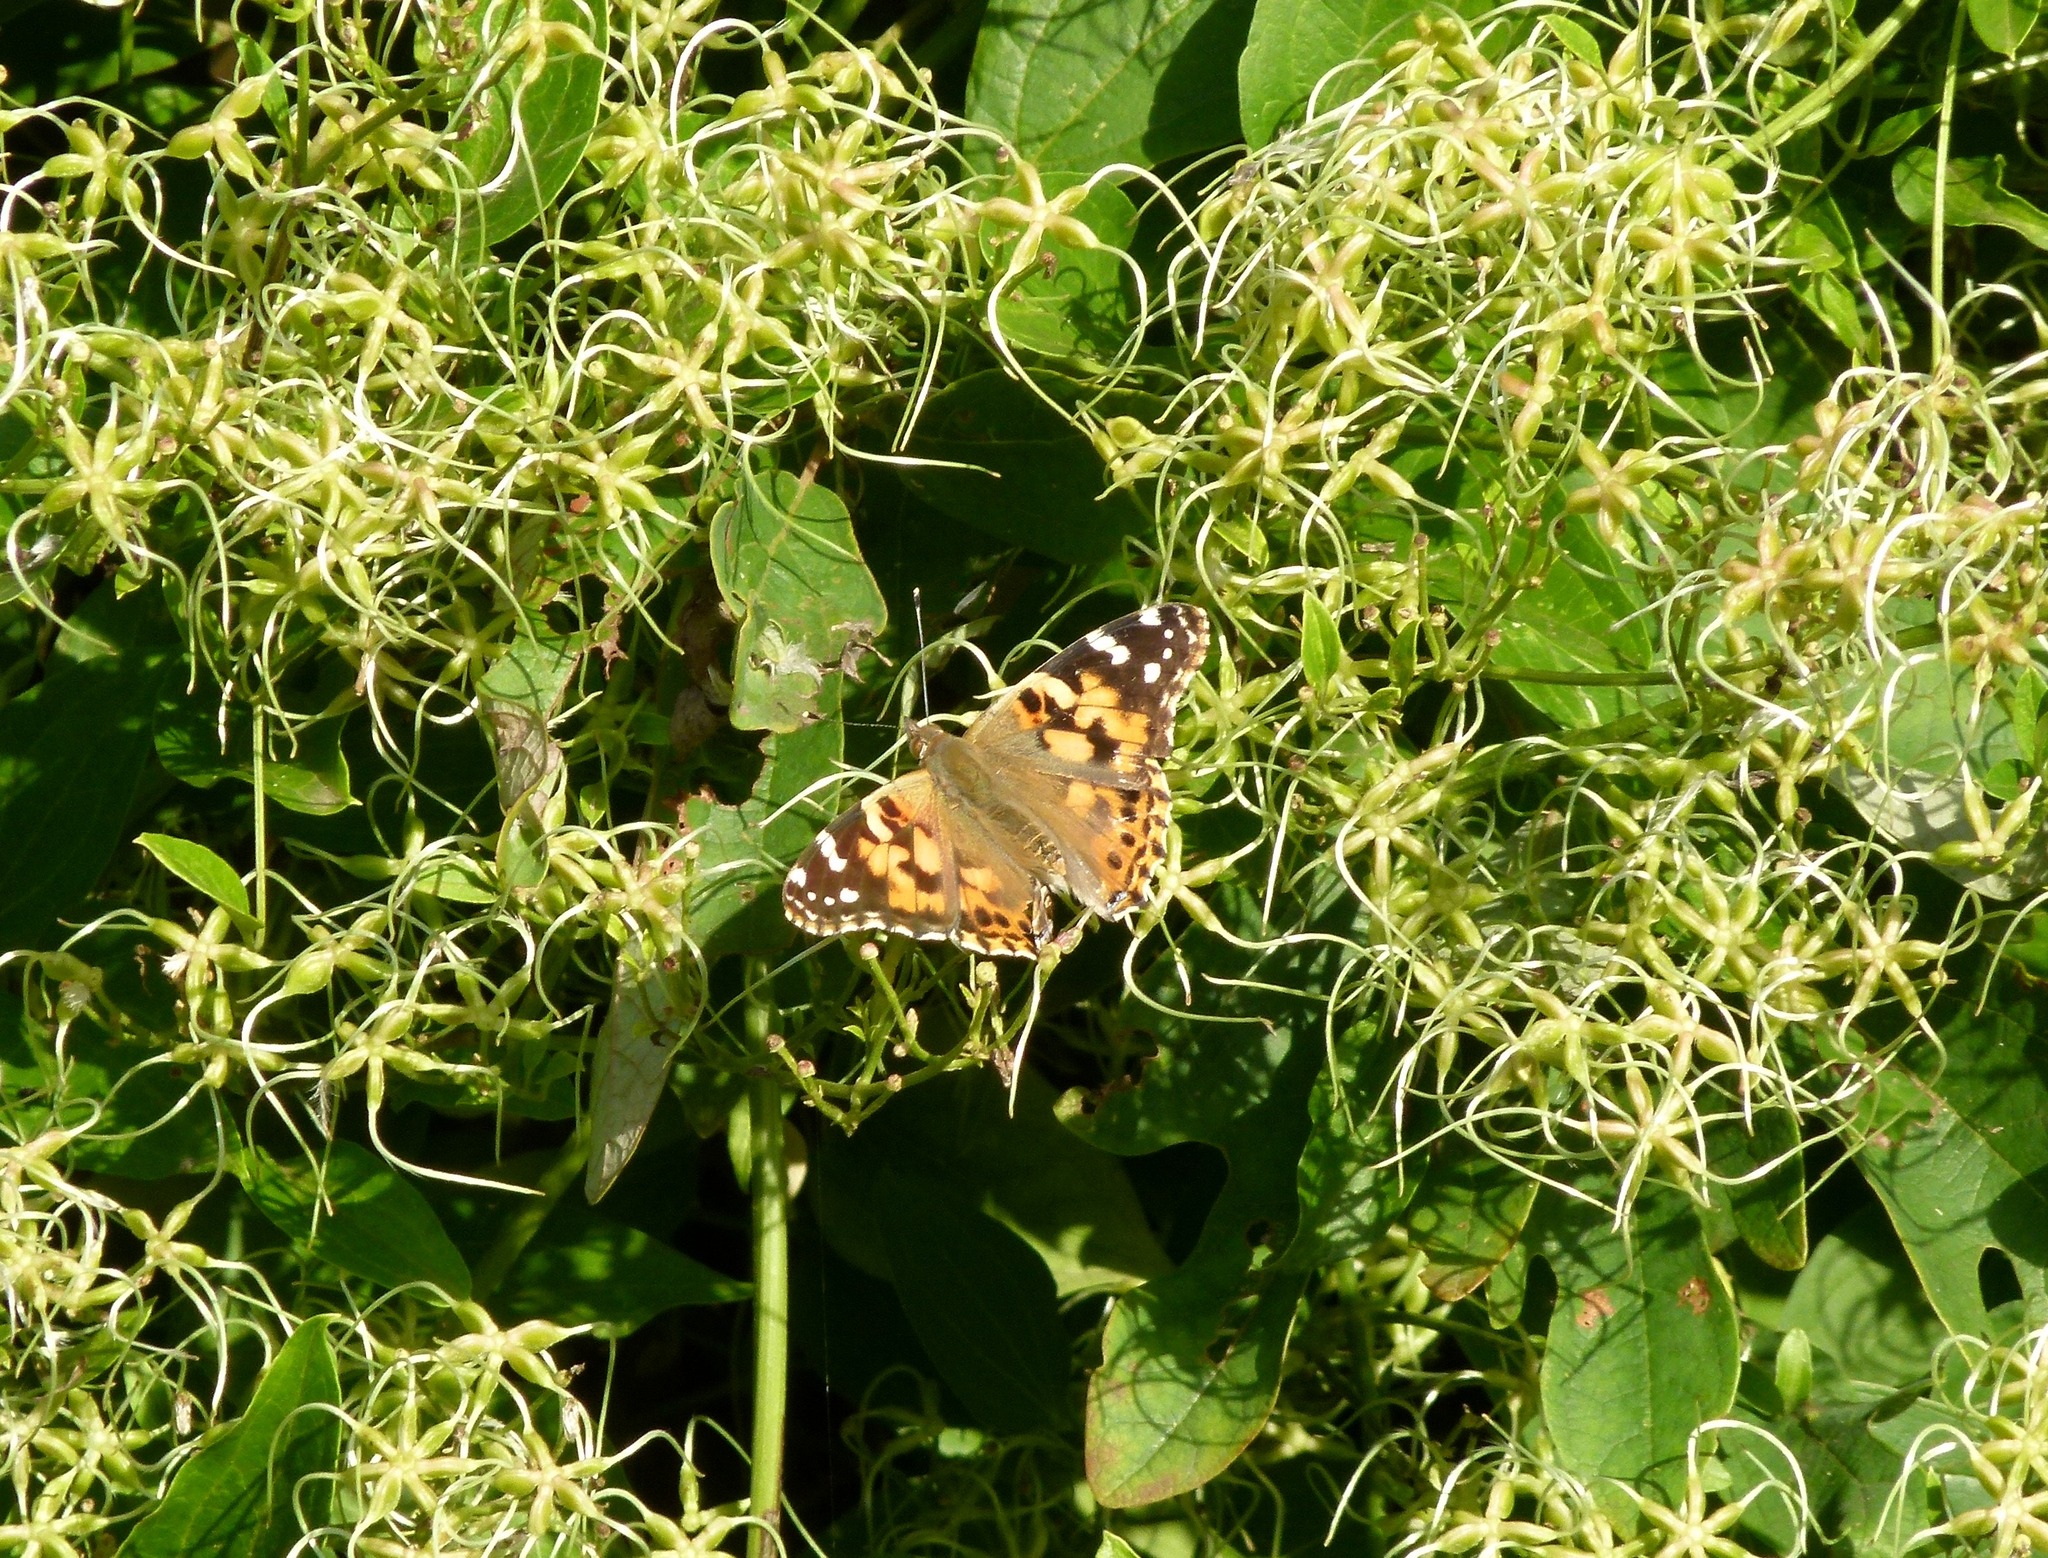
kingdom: Animalia
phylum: Arthropoda
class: Insecta
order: Lepidoptera
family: Nymphalidae
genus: Vanessa
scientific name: Vanessa cardui
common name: Painted lady
